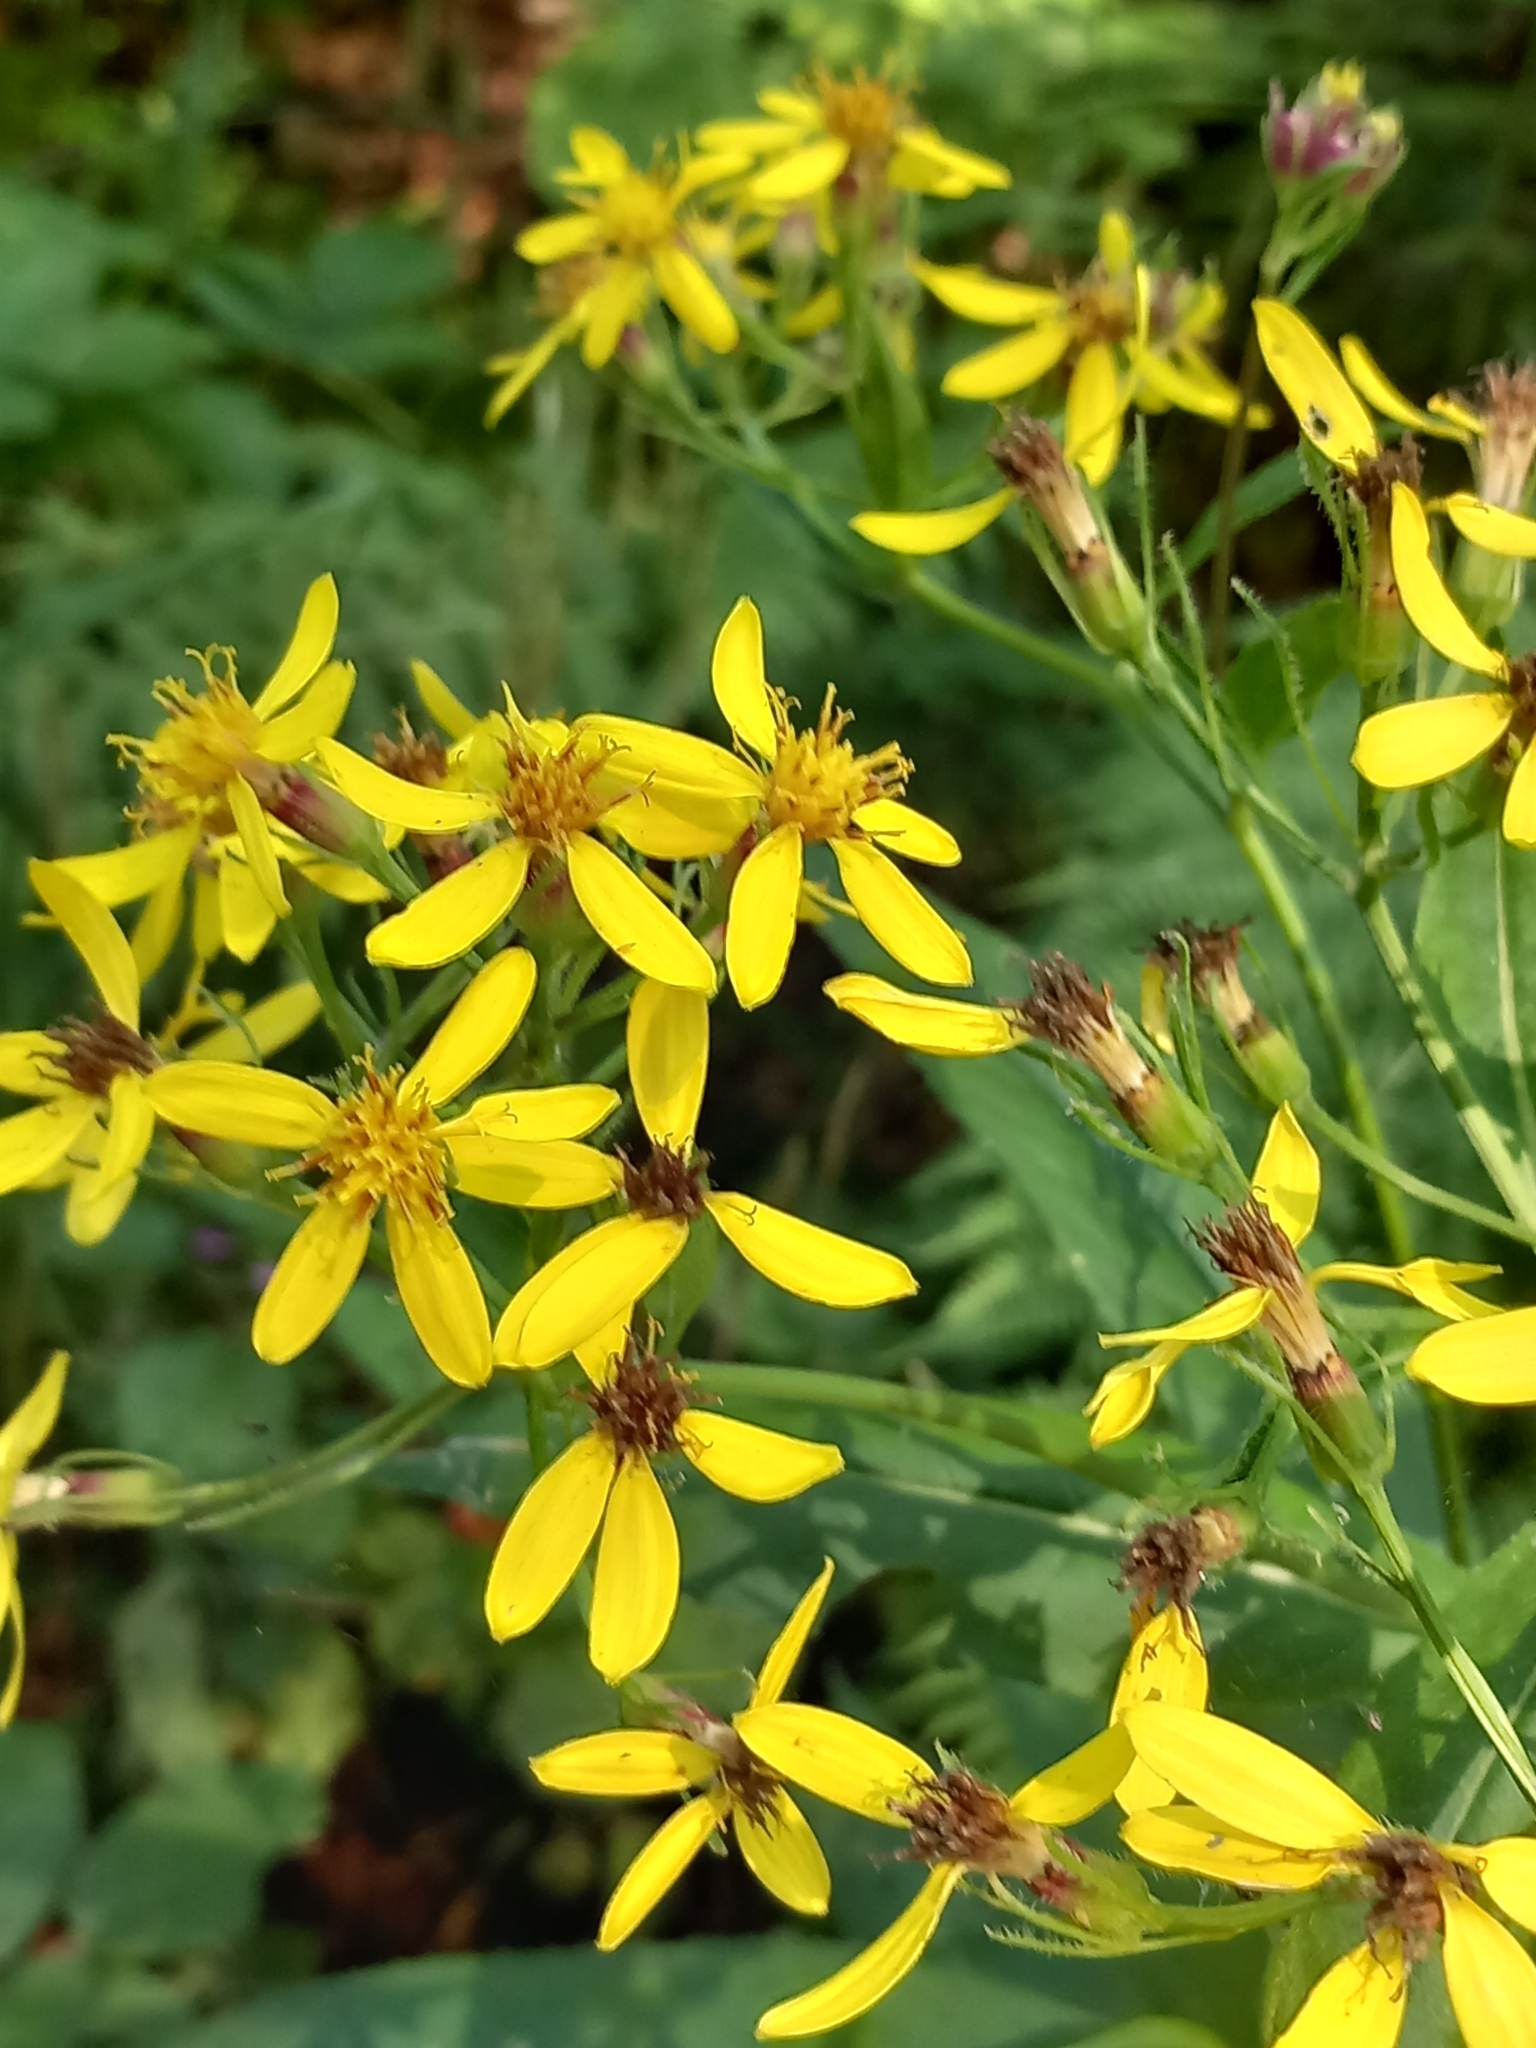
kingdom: Plantae
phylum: Tracheophyta
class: Magnoliopsida
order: Asterales
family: Asteraceae
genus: Senecio
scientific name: Senecio propinquus
